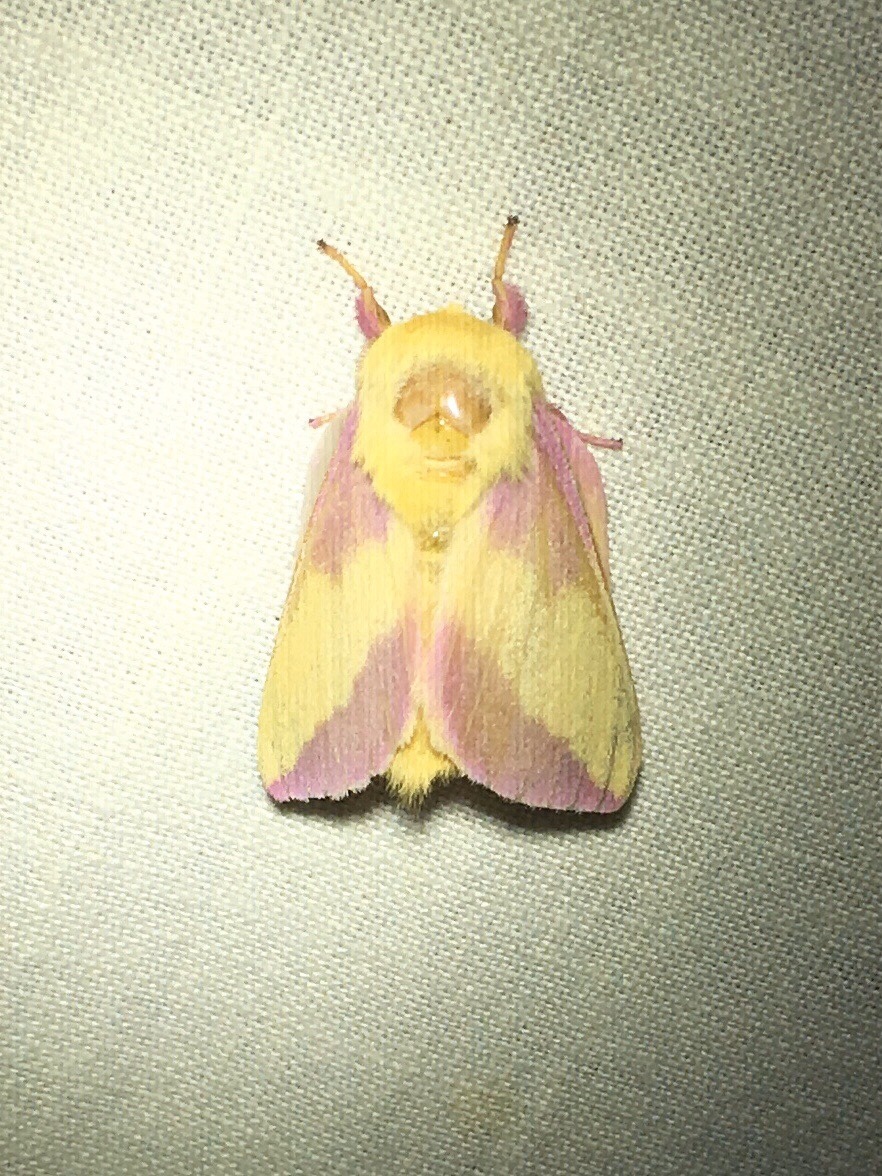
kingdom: Animalia
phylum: Arthropoda
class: Insecta
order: Lepidoptera
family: Saturniidae
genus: Dryocampa
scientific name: Dryocampa rubicunda
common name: Rosy maple moth
